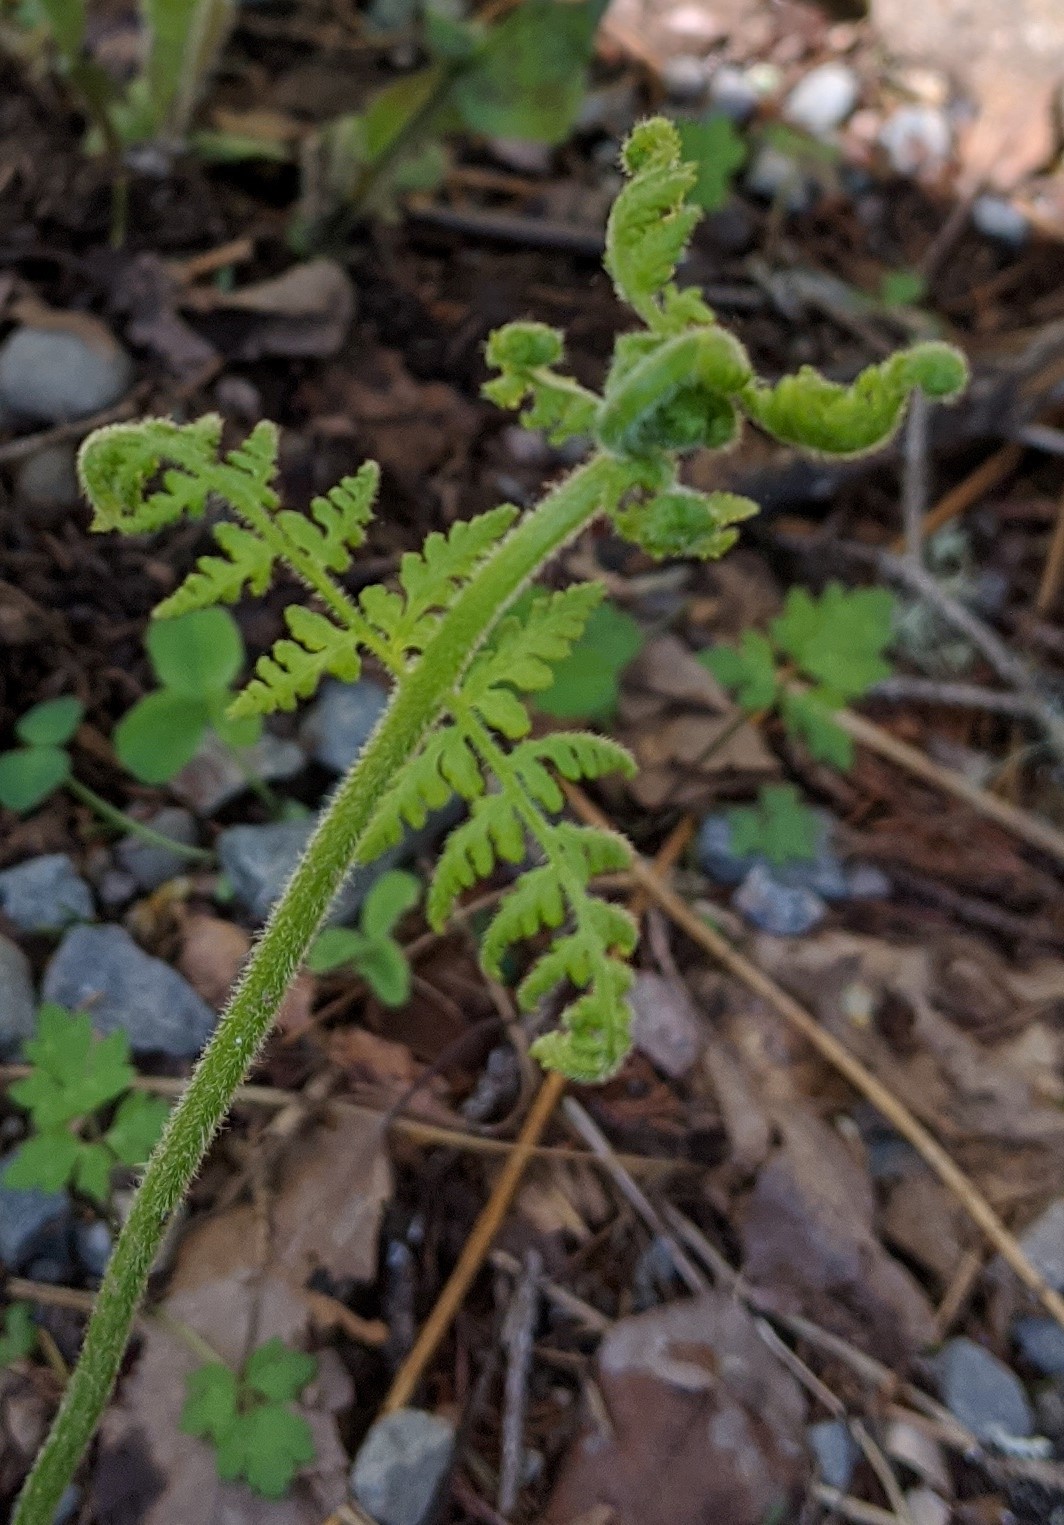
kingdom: Plantae
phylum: Tracheophyta
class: Polypodiopsida
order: Polypodiales
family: Dennstaedtiaceae
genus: Sitobolium
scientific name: Sitobolium punctilobum
